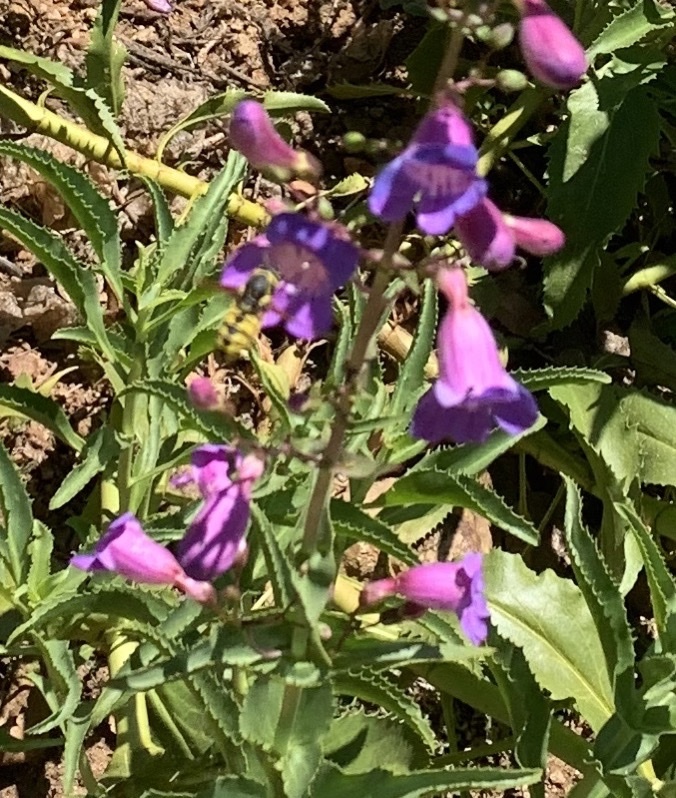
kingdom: Animalia
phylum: Arthropoda
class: Insecta
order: Hymenoptera
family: Masaridae
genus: Pseudomasaris
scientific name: Pseudomasaris vespoides
